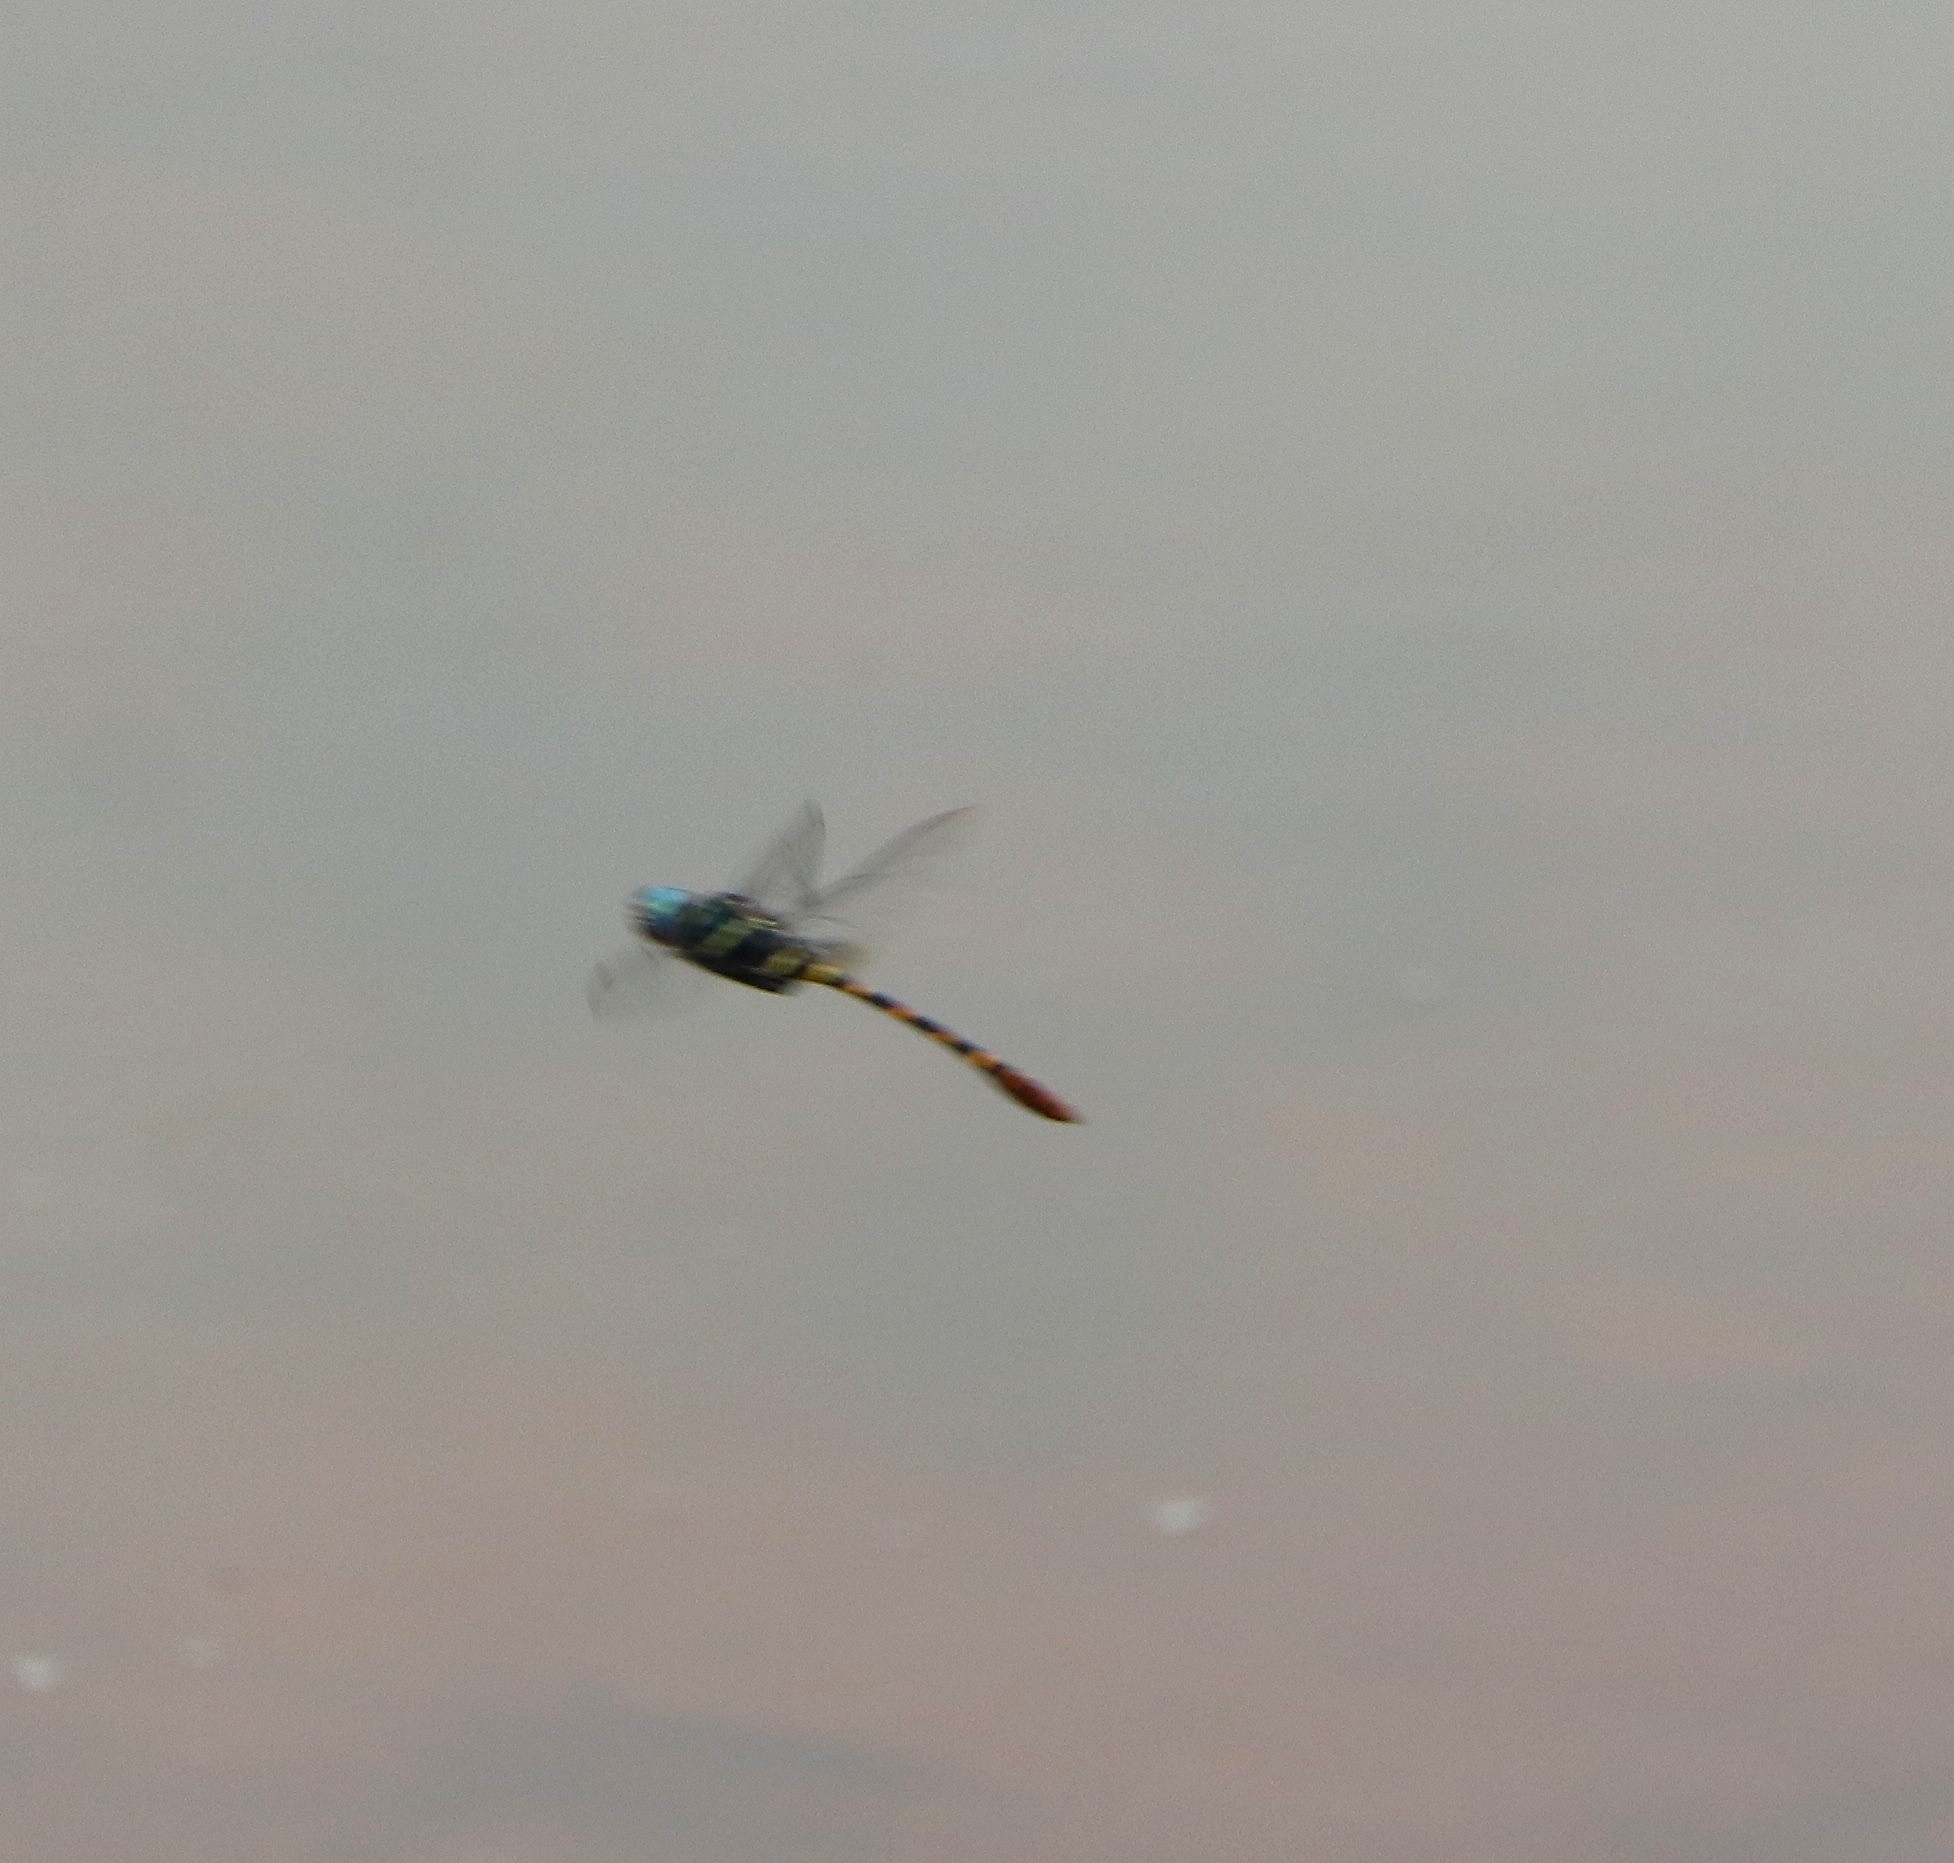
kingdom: Animalia
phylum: Arthropoda
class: Insecta
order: Odonata
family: Macromiidae
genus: Epophthalmia
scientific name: Epophthalmia vittata
